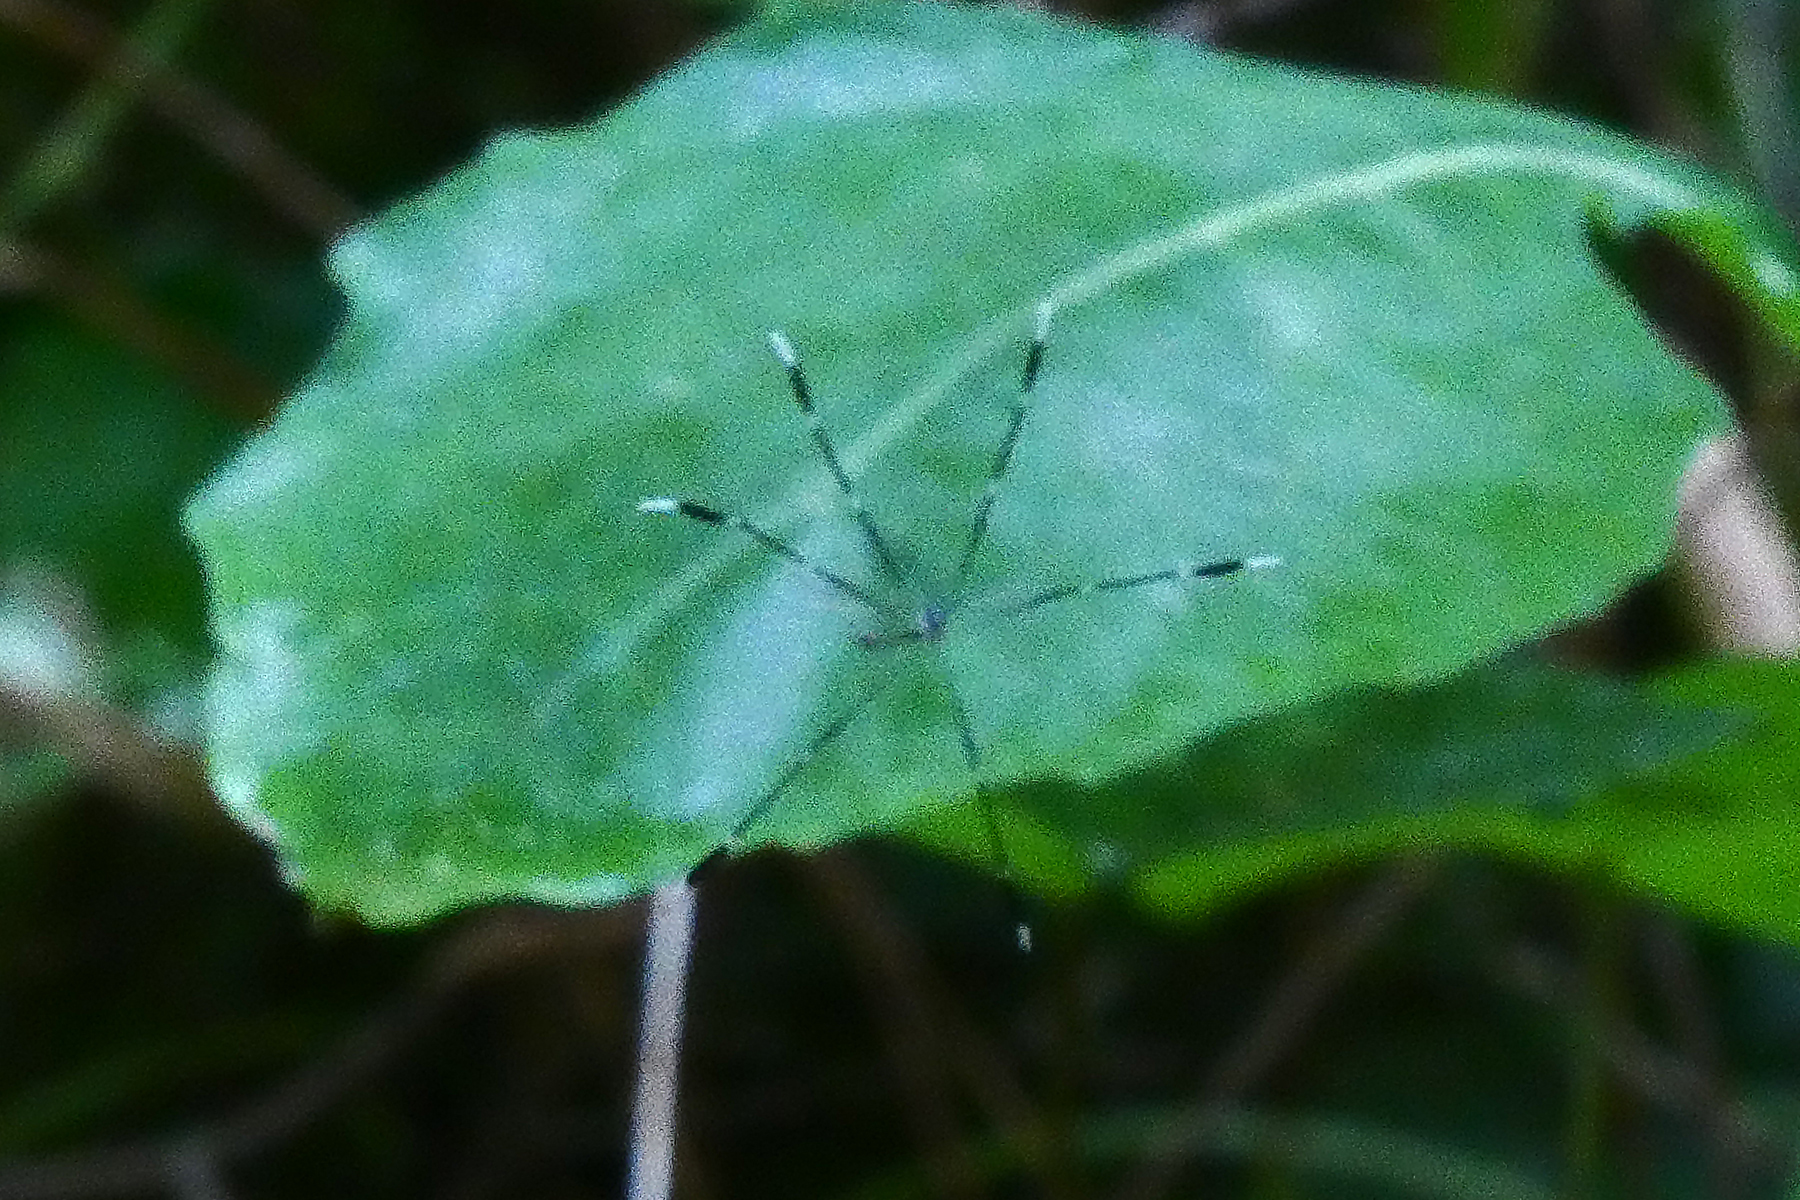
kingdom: Animalia
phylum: Arthropoda
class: Insecta
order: Diptera
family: Ptychopteridae
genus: Bittacomorpha
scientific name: Bittacomorpha clavipes
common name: Eastern phantom crane fly
